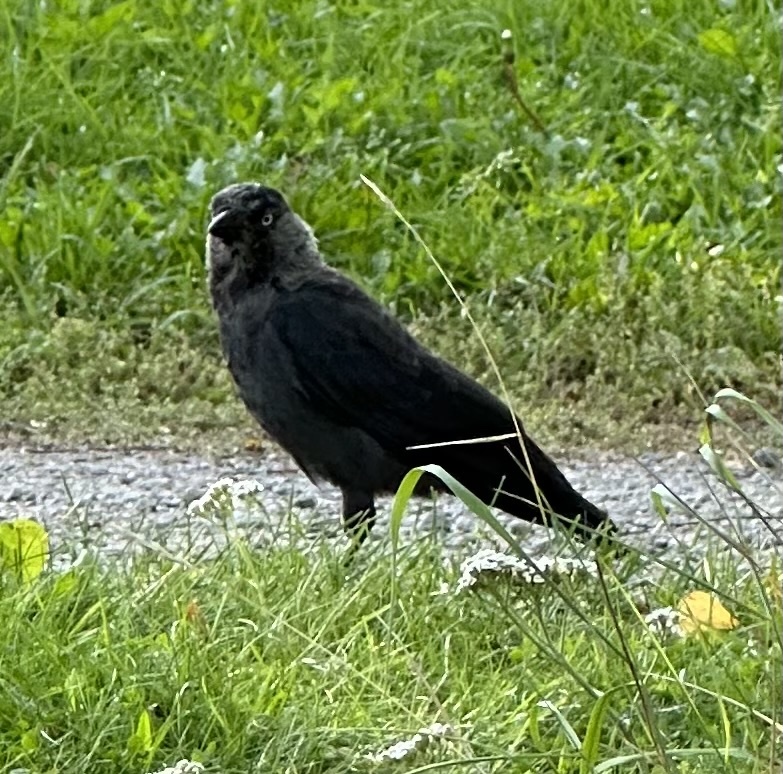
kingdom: Animalia
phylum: Chordata
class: Aves
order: Passeriformes
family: Corvidae
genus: Coloeus
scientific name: Coloeus monedula
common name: Western jackdaw
